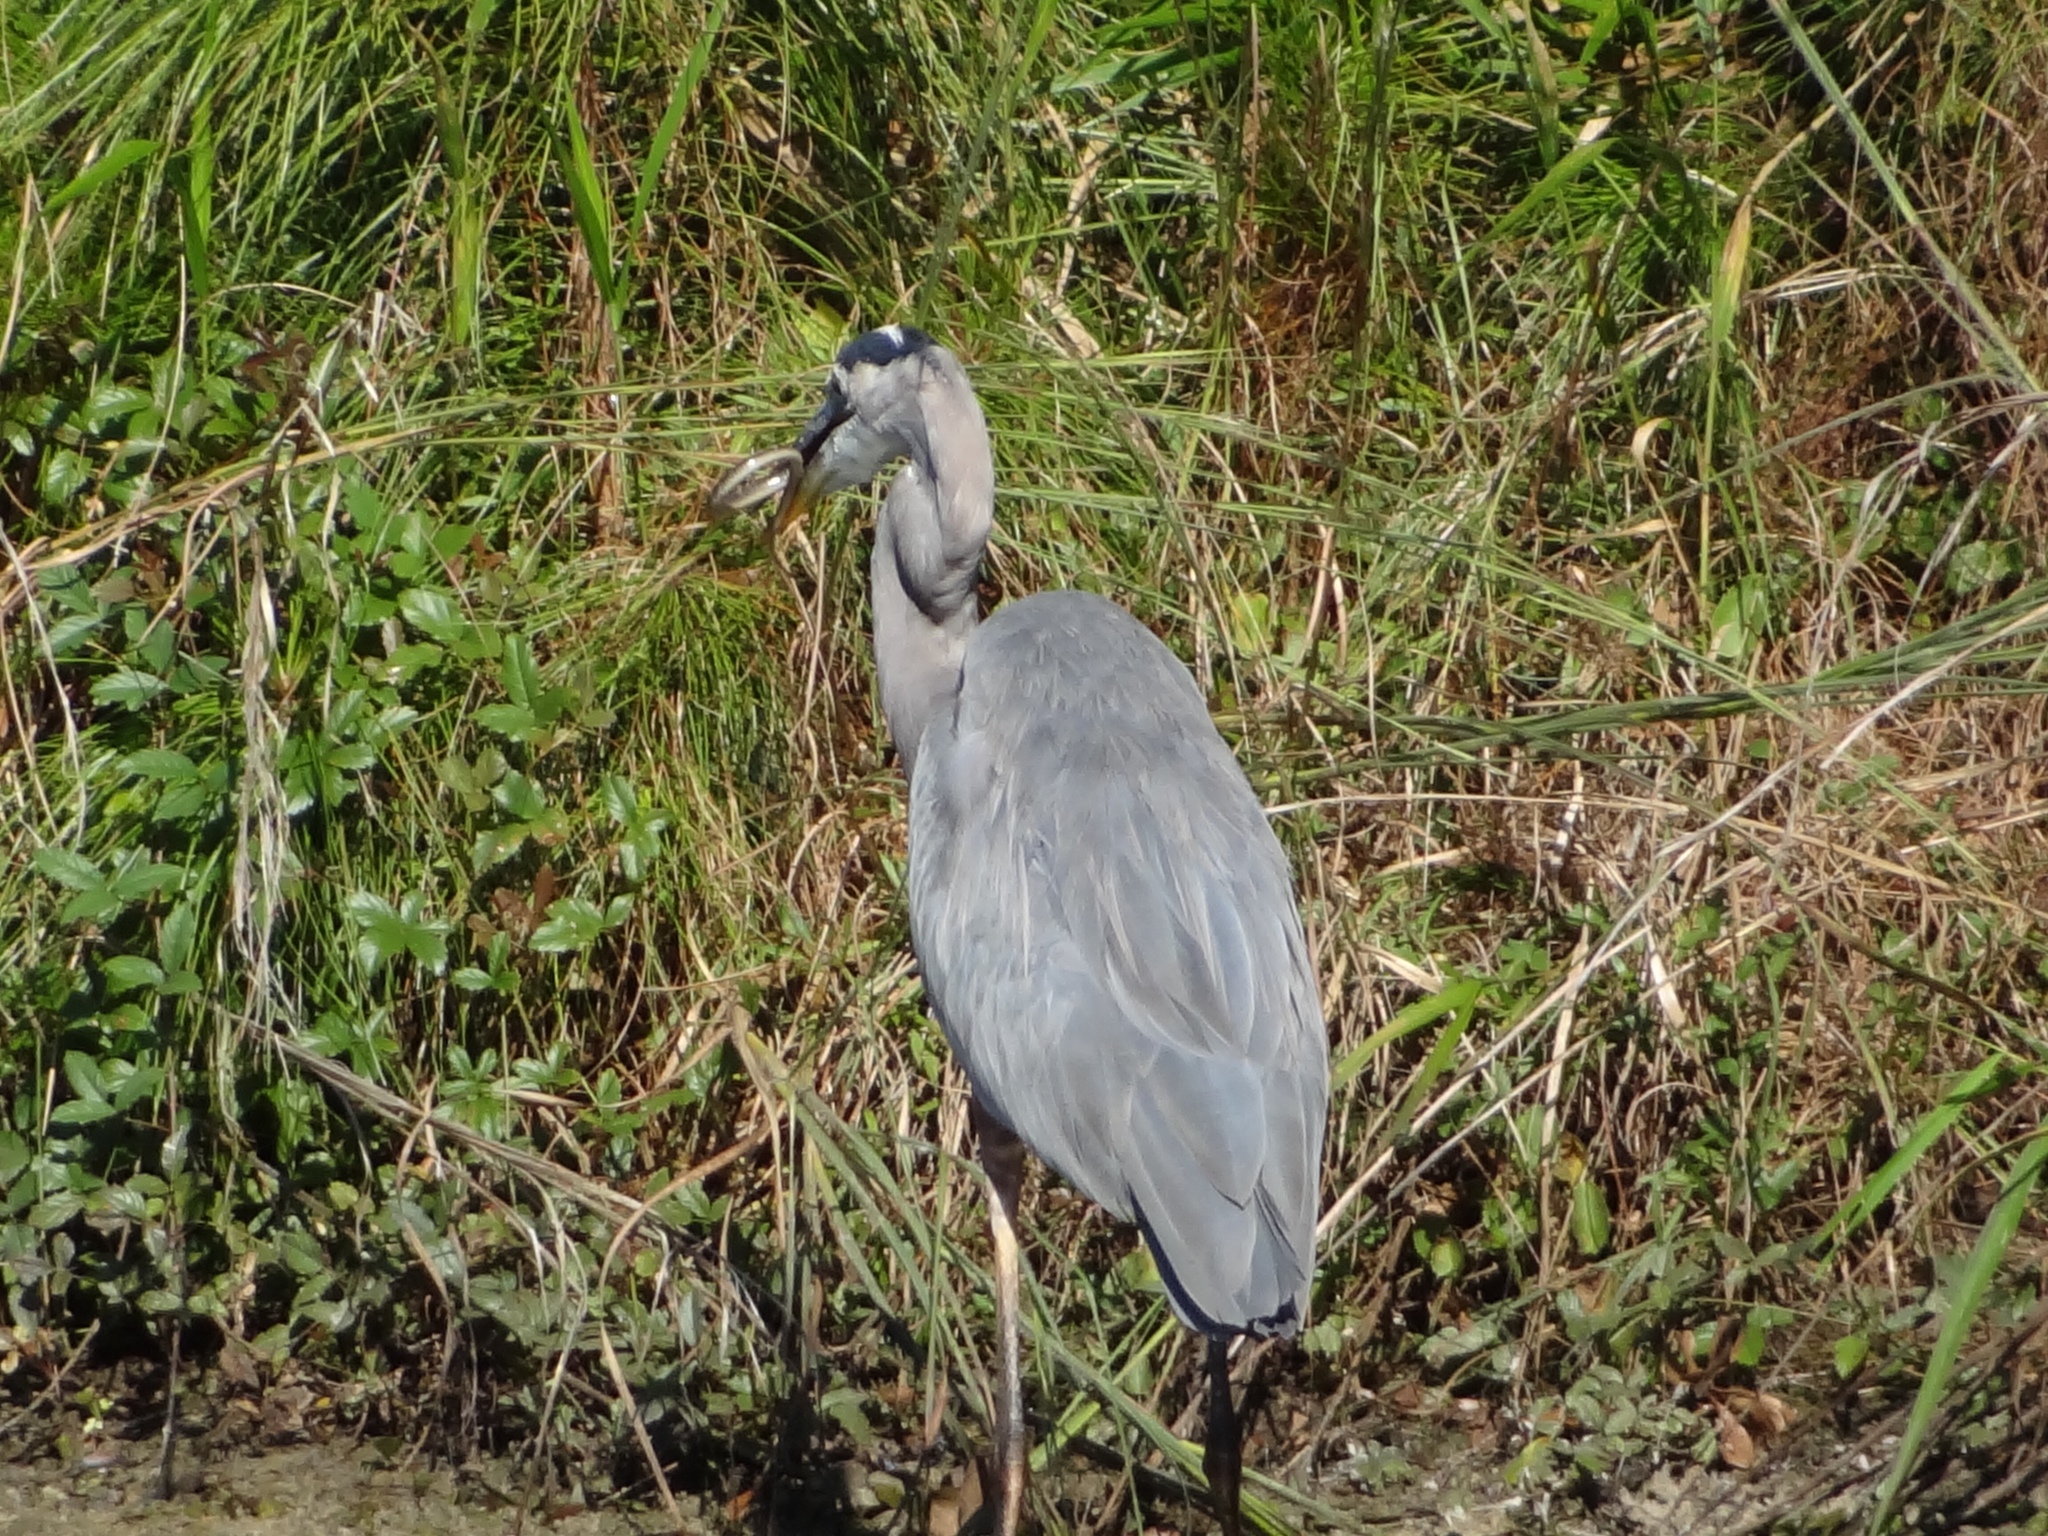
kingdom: Animalia
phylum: Chordata
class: Aves
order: Pelecaniformes
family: Ardeidae
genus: Ardea
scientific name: Ardea herodias
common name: Great blue heron
